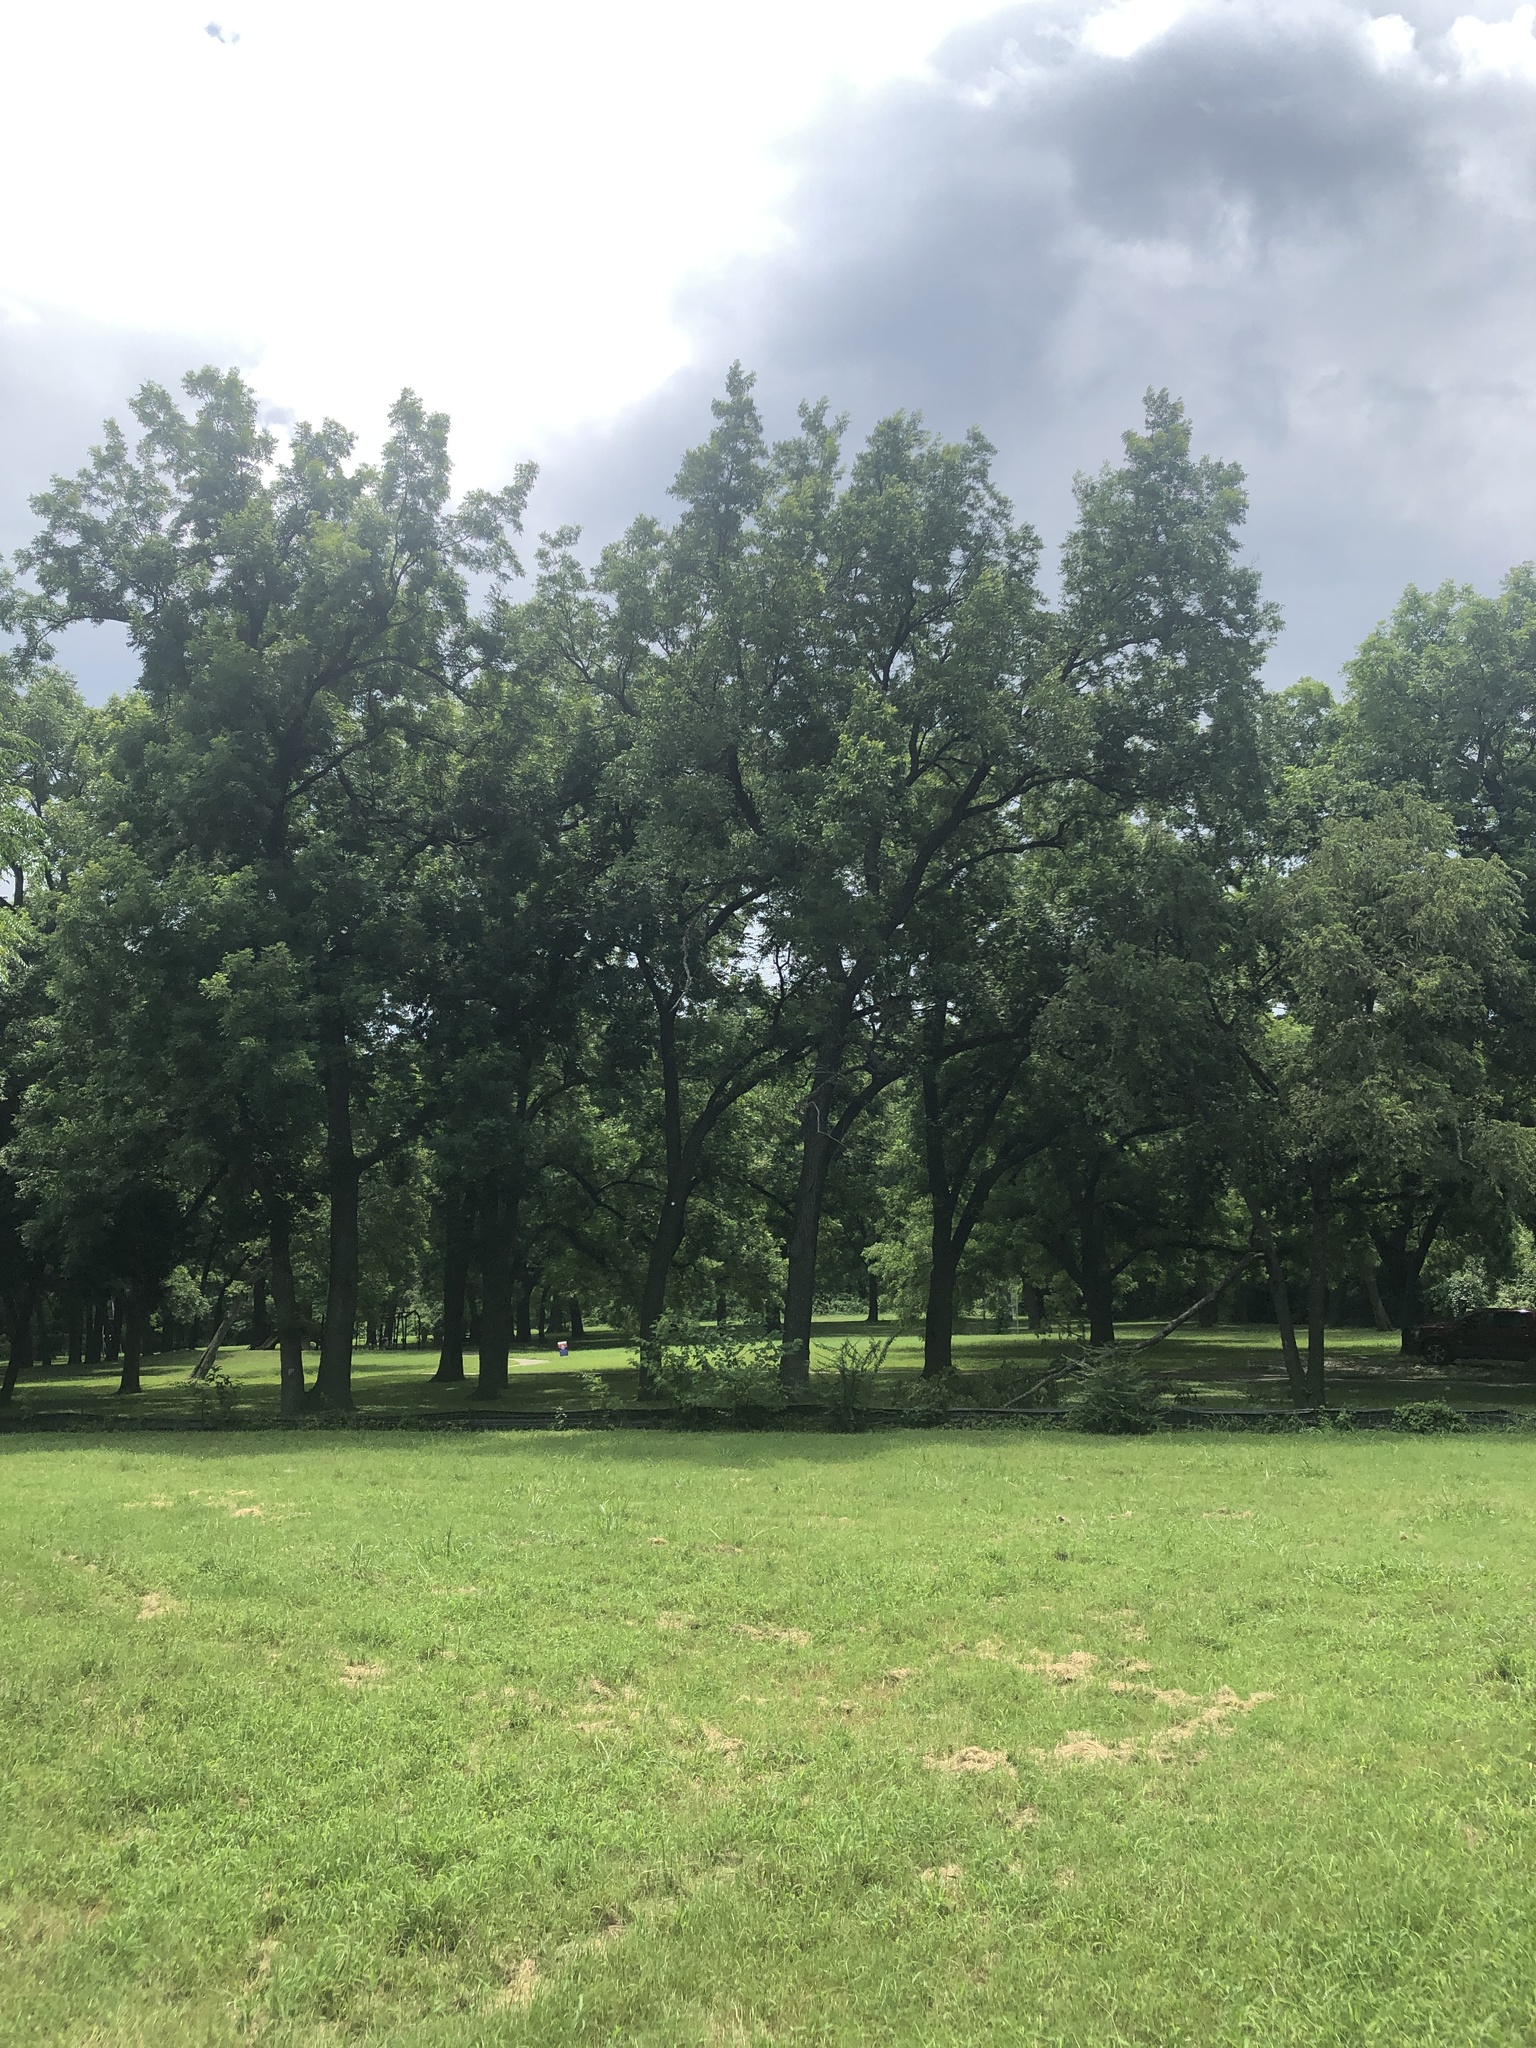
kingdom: Plantae
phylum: Tracheophyta
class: Magnoliopsida
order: Fagales
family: Juglandaceae
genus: Carya
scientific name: Carya illinoinensis
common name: Pecan
